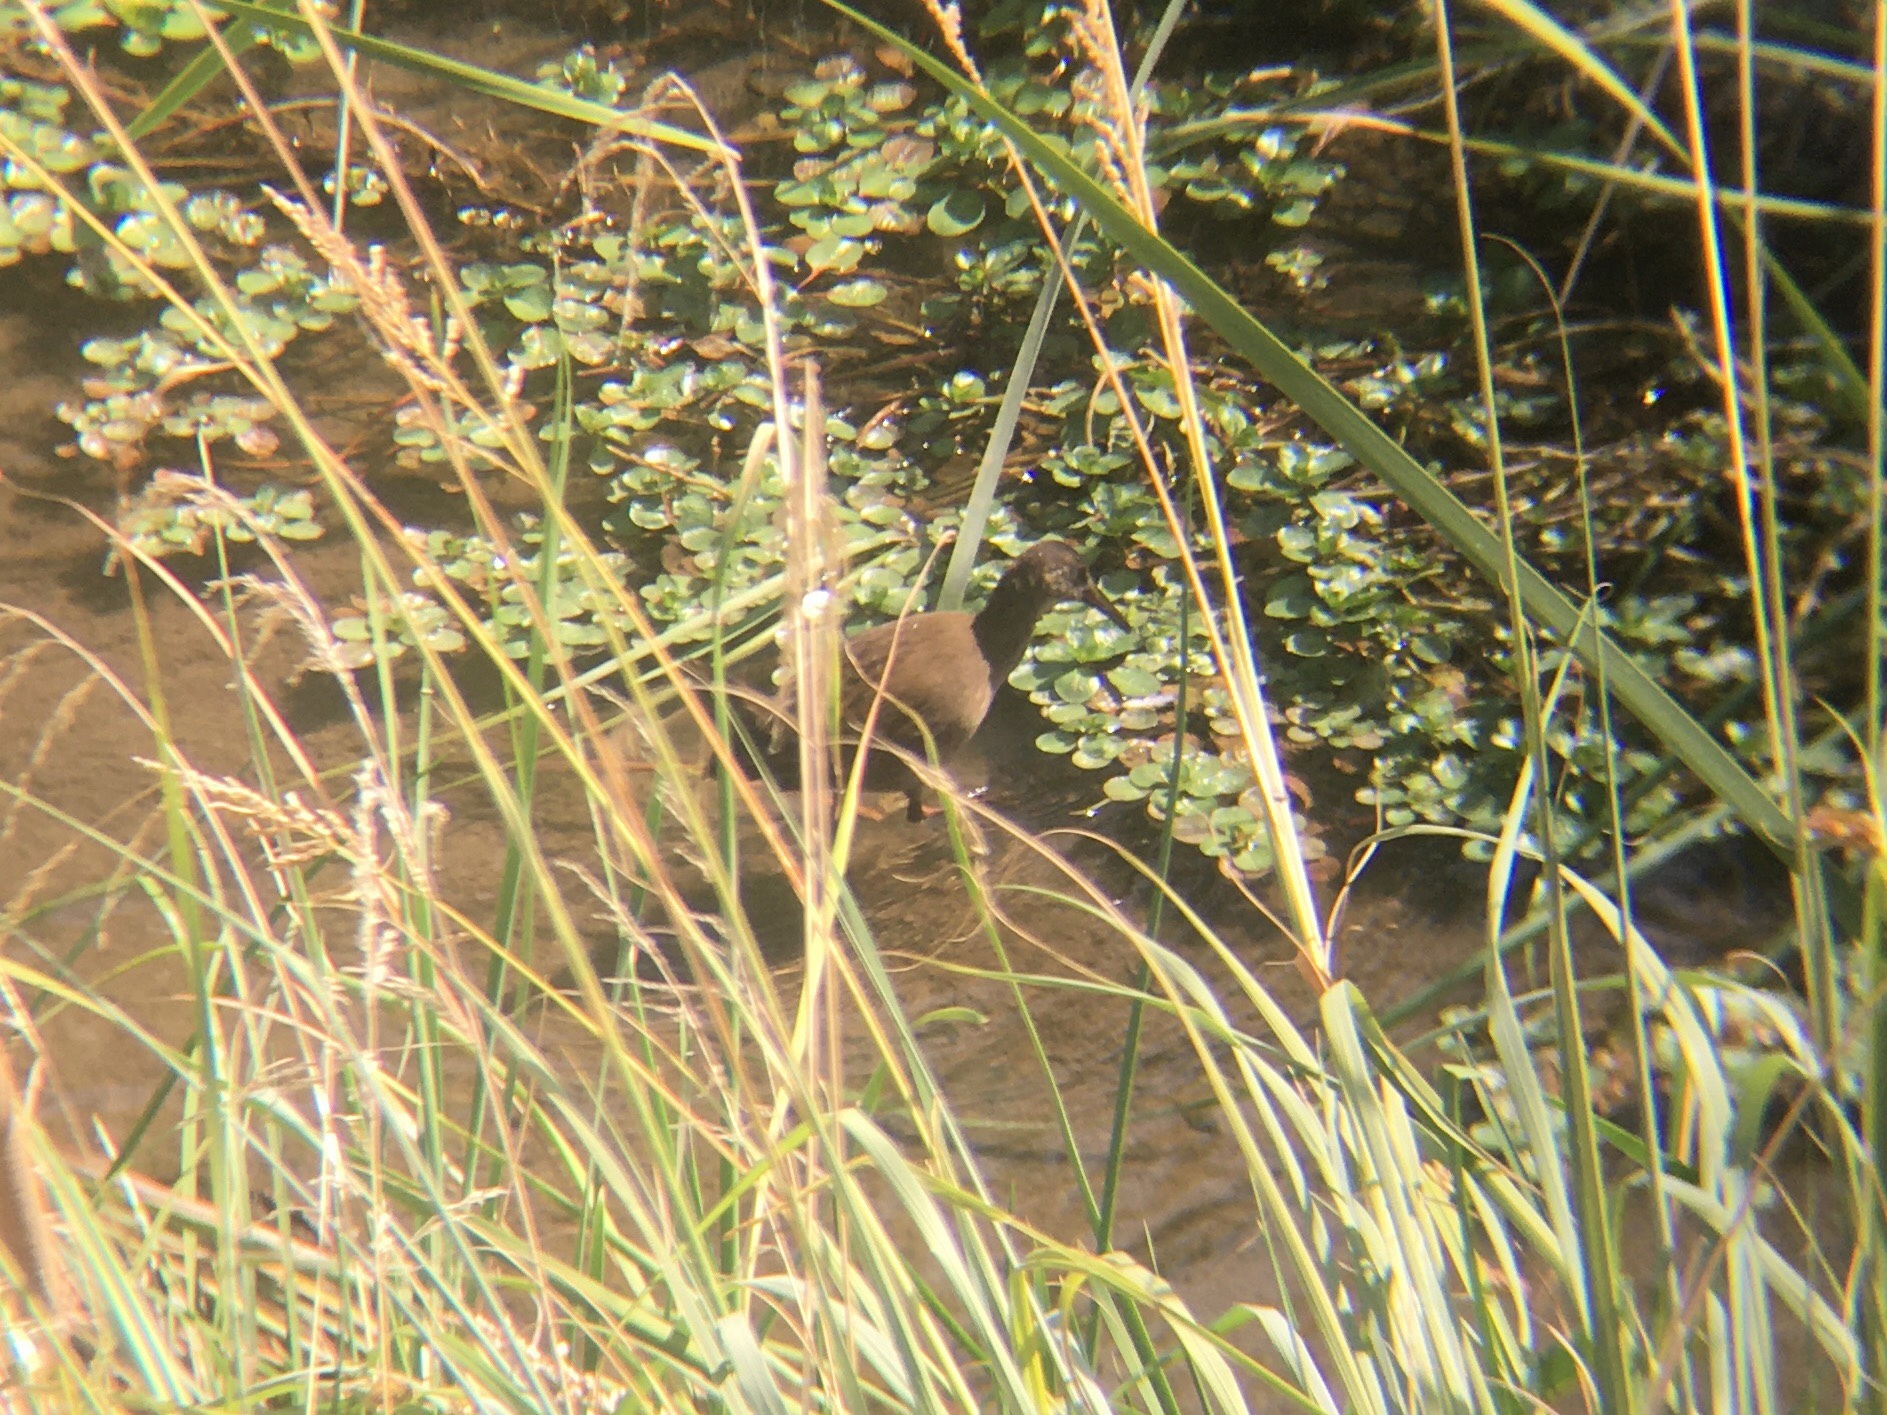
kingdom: Animalia
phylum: Chordata
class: Aves
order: Gruiformes
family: Rallidae
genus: Pardirallus
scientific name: Pardirallus sanguinolentus
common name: Plumbeous rail
